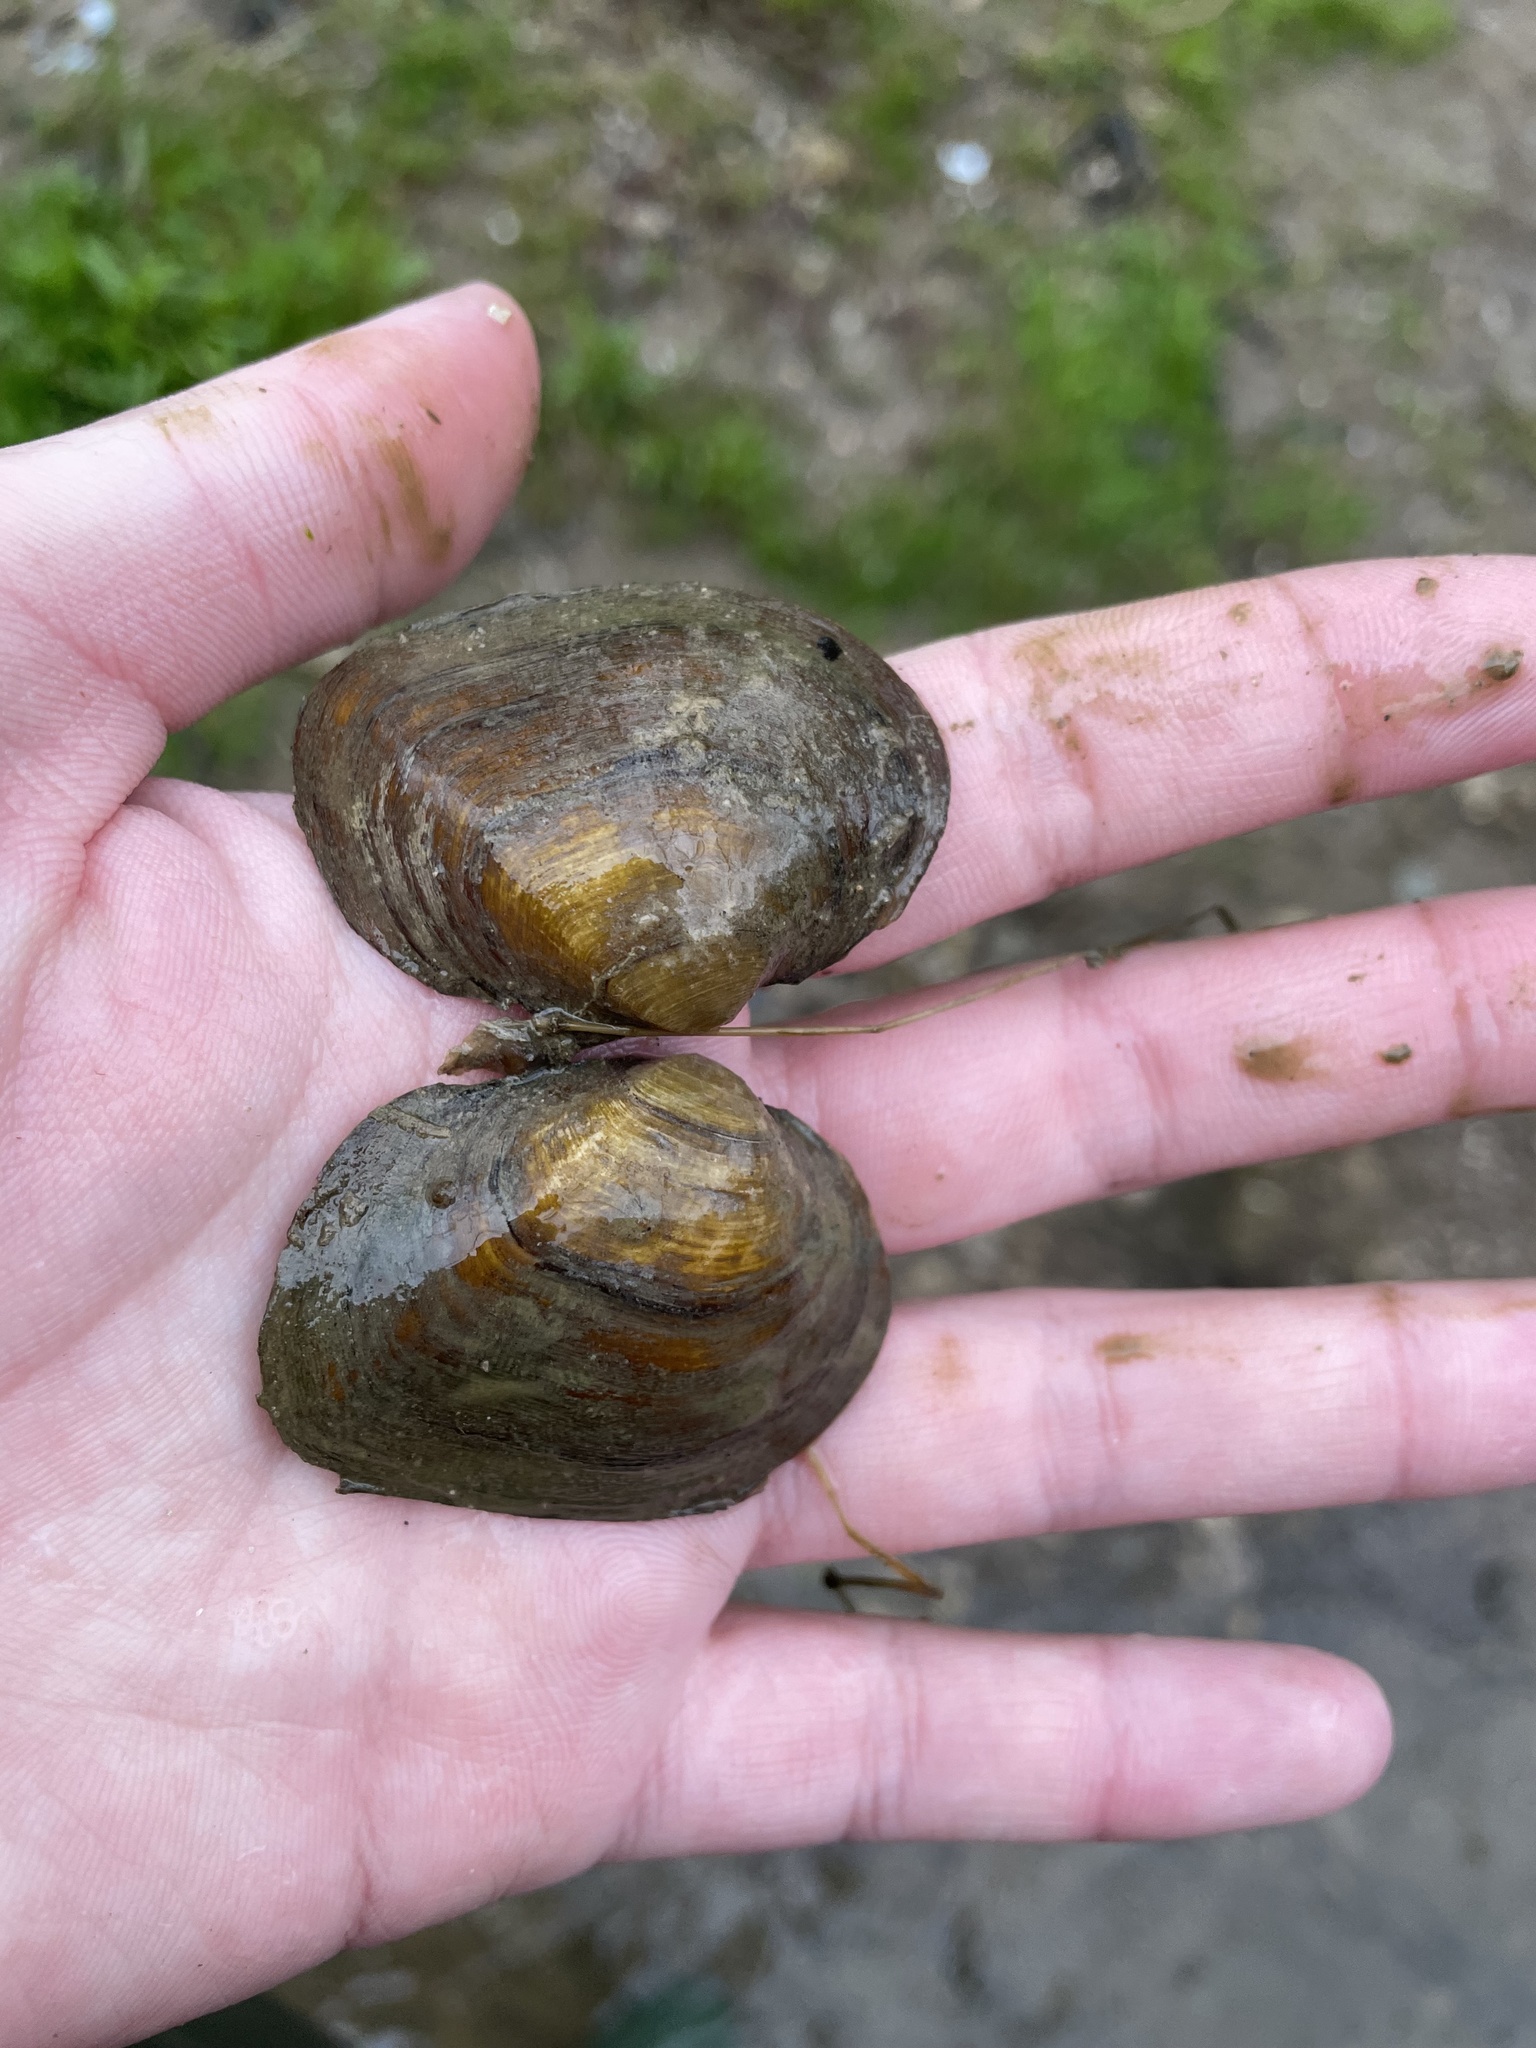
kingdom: Animalia
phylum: Mollusca
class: Bivalvia
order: Unionida
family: Unionidae
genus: Fusconaia
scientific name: Fusconaia flava
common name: Wabash pigtoe
